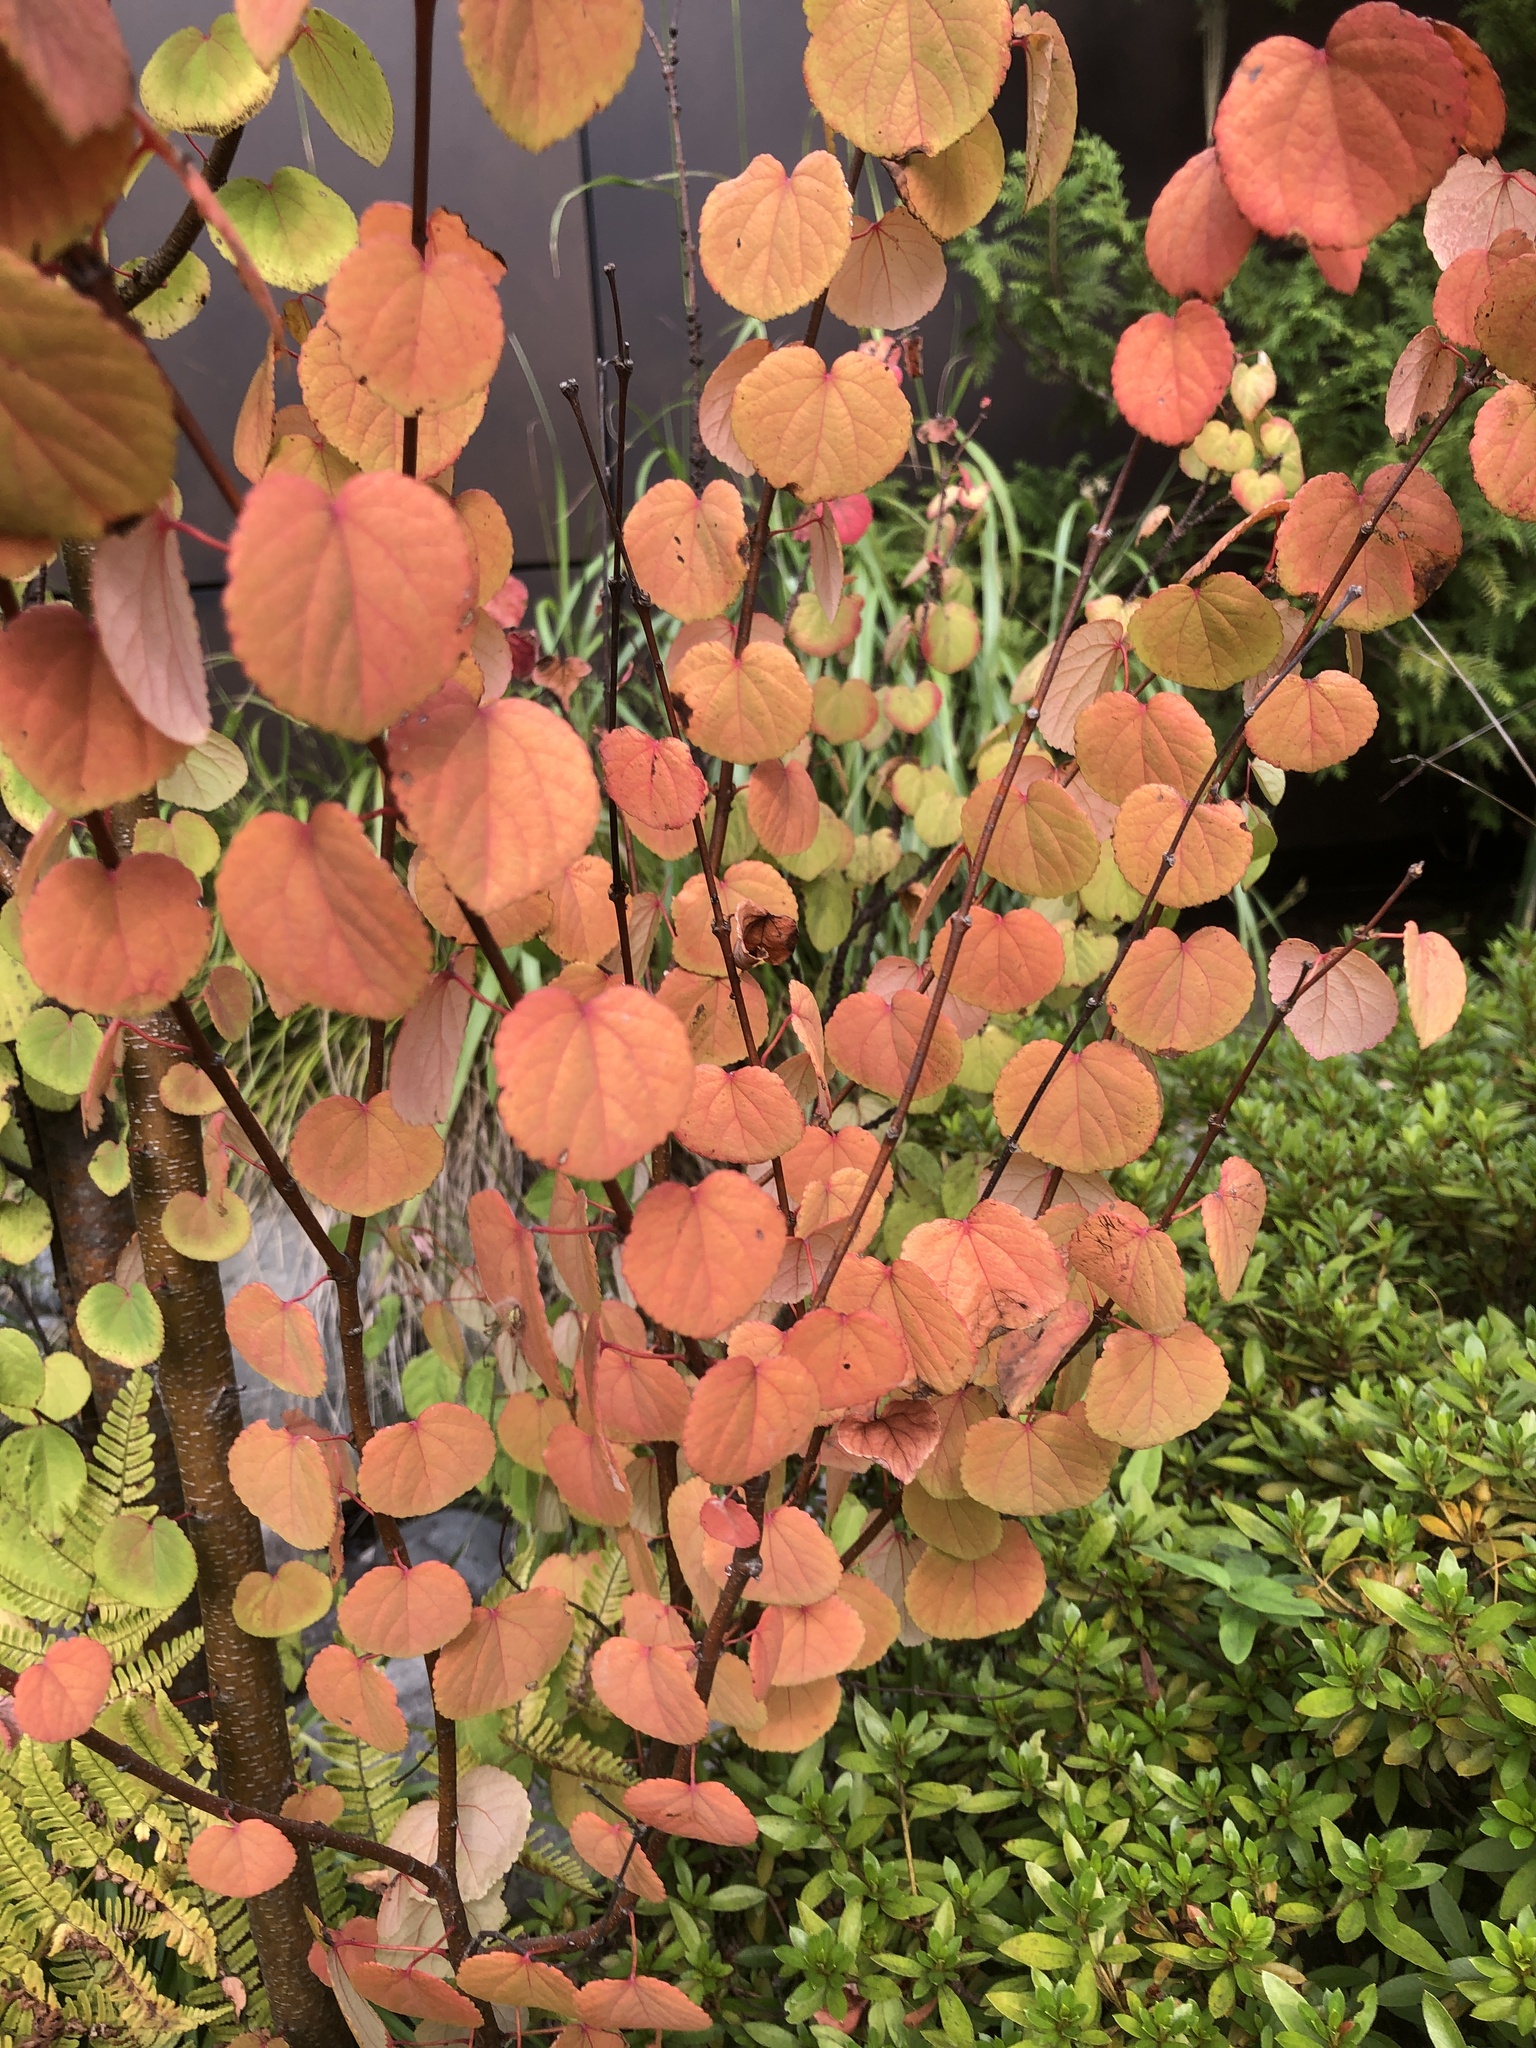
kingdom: Plantae
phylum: Tracheophyta
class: Magnoliopsida
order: Saxifragales
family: Cercidiphyllaceae
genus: Cercidiphyllum
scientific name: Cercidiphyllum japonicum
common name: Katsura tree
